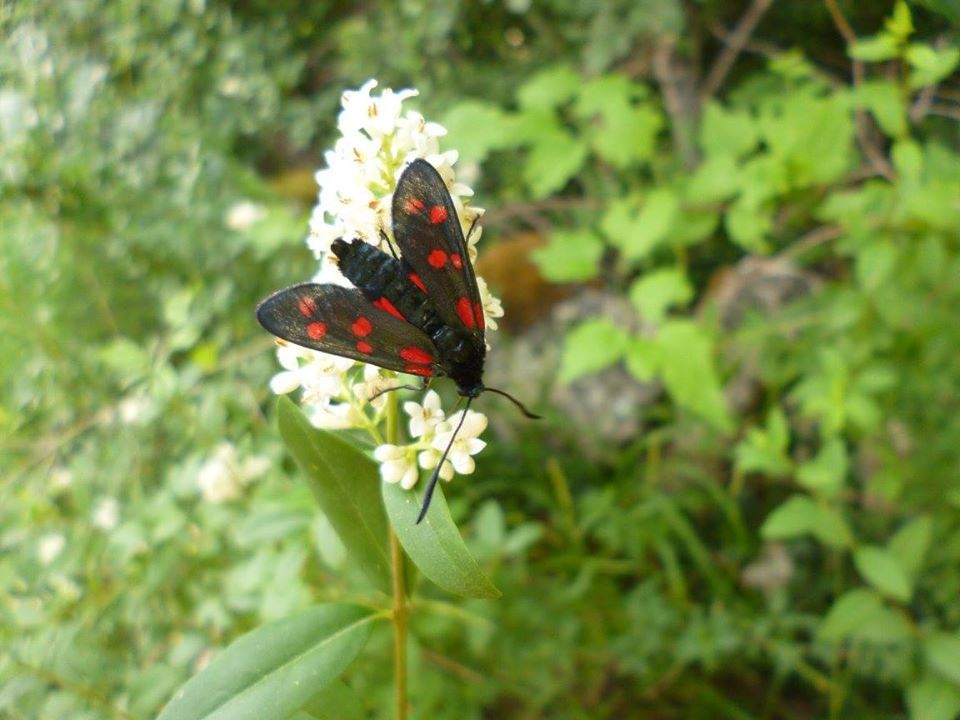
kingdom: Animalia
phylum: Arthropoda
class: Insecta
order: Lepidoptera
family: Zygaenidae
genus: Zygaena
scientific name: Zygaena filipendulae
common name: Six-spot burnet
